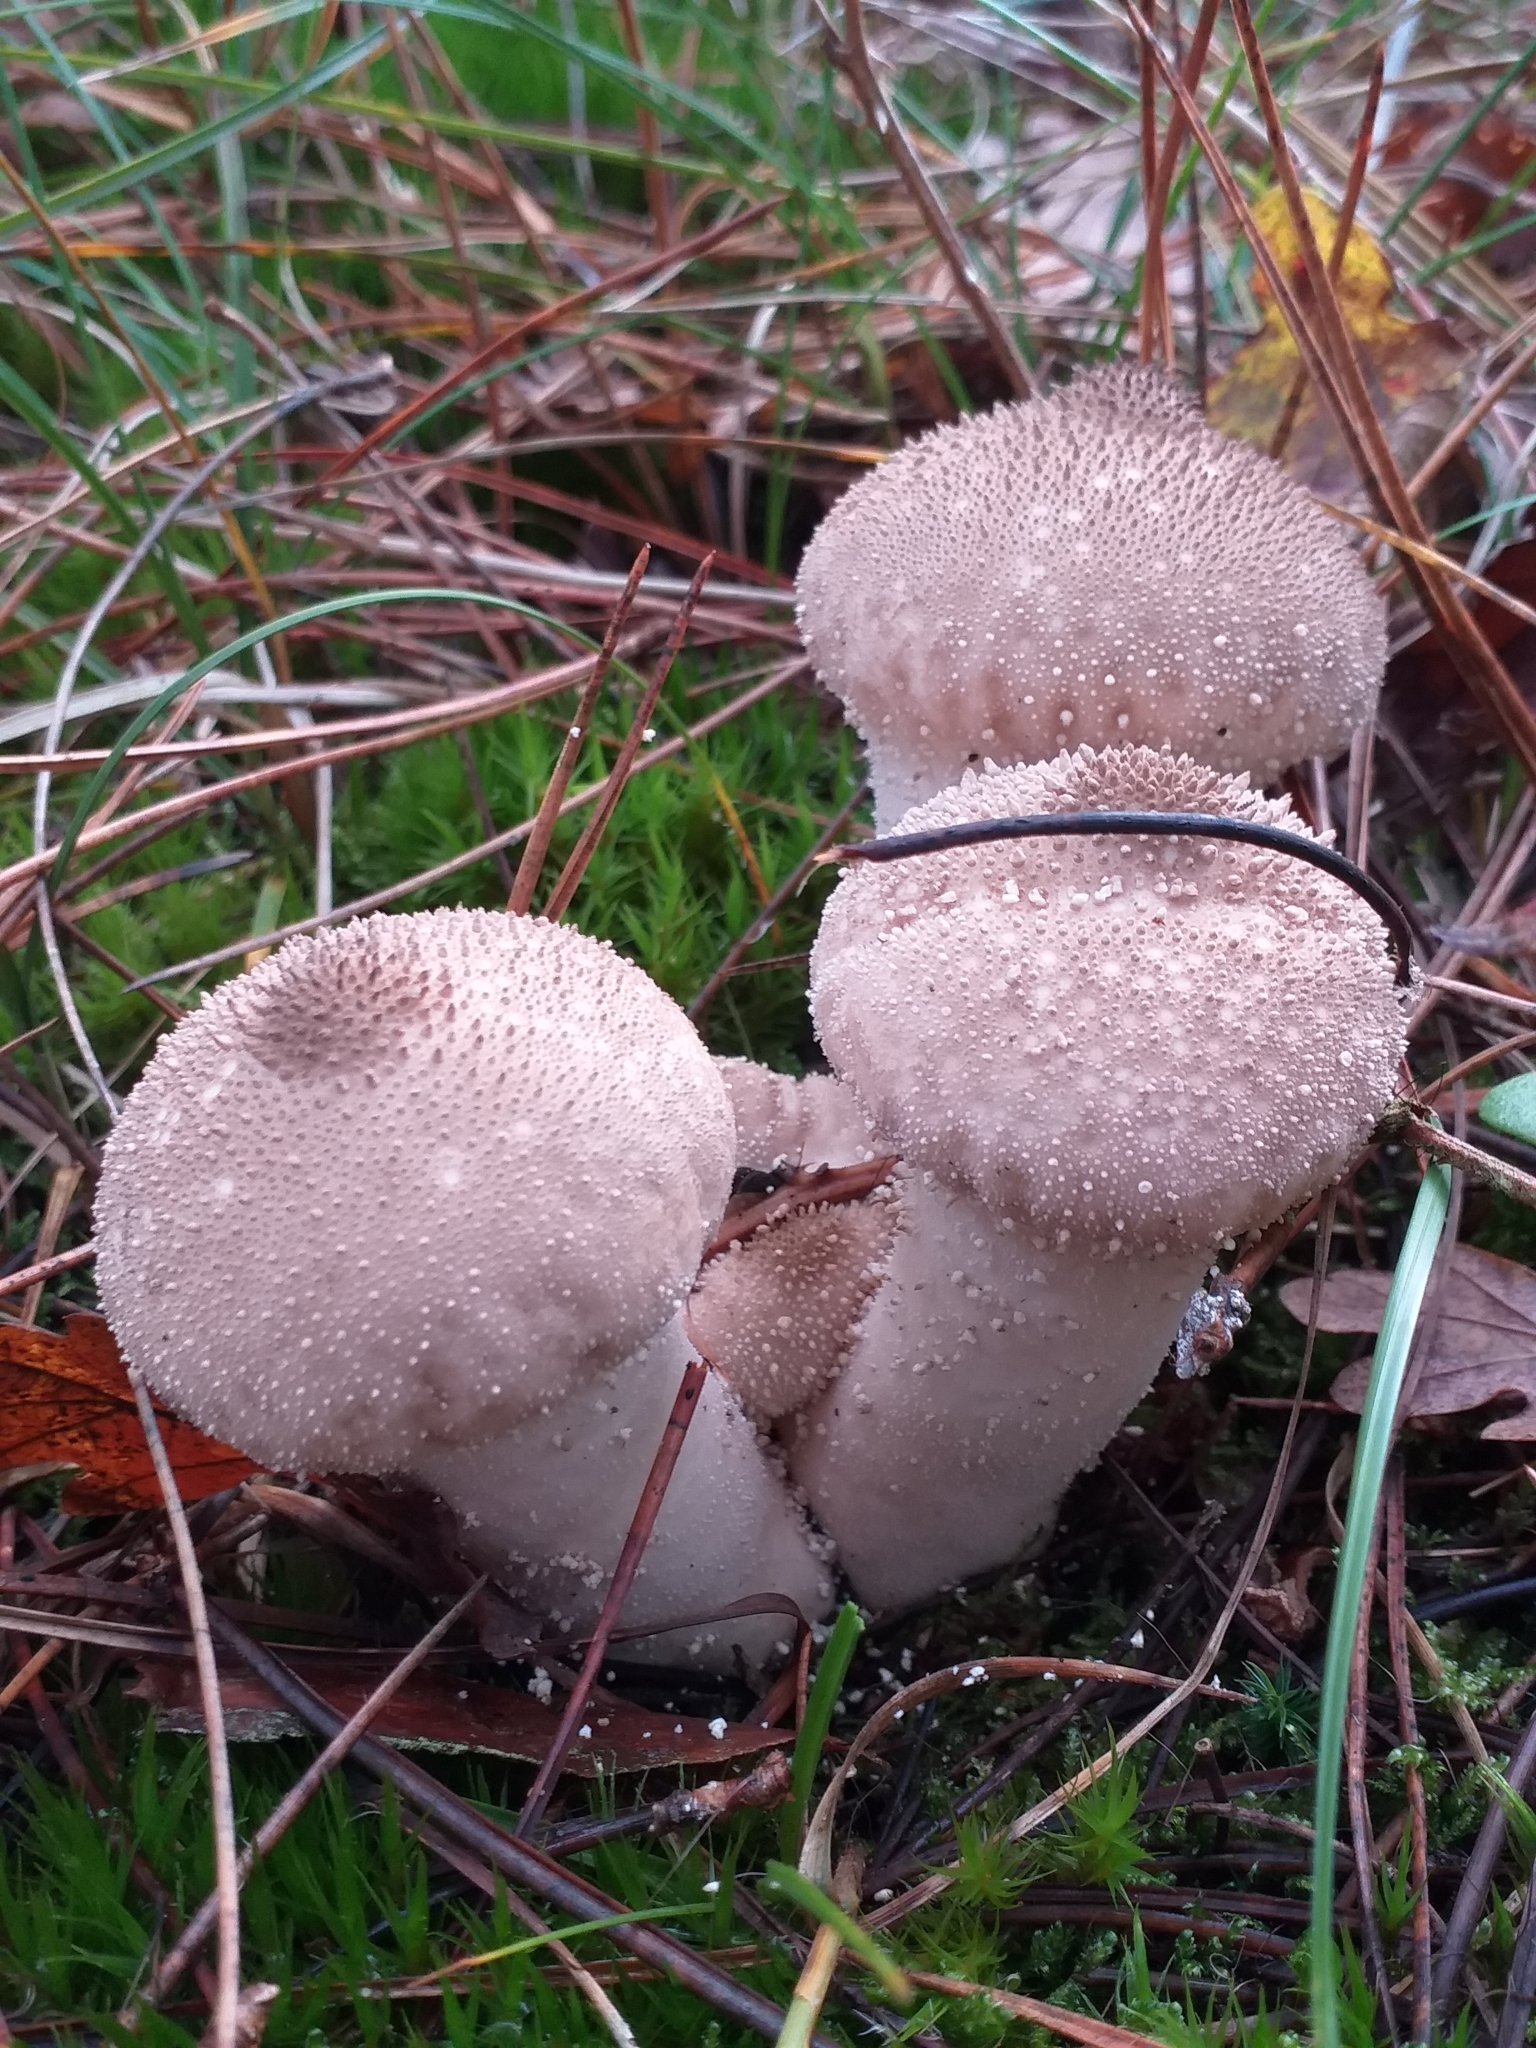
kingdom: Fungi
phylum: Basidiomycota
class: Agaricomycetes
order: Agaricales
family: Lycoperdaceae
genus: Lycoperdon
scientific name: Lycoperdon perlatum
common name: Common puffball
